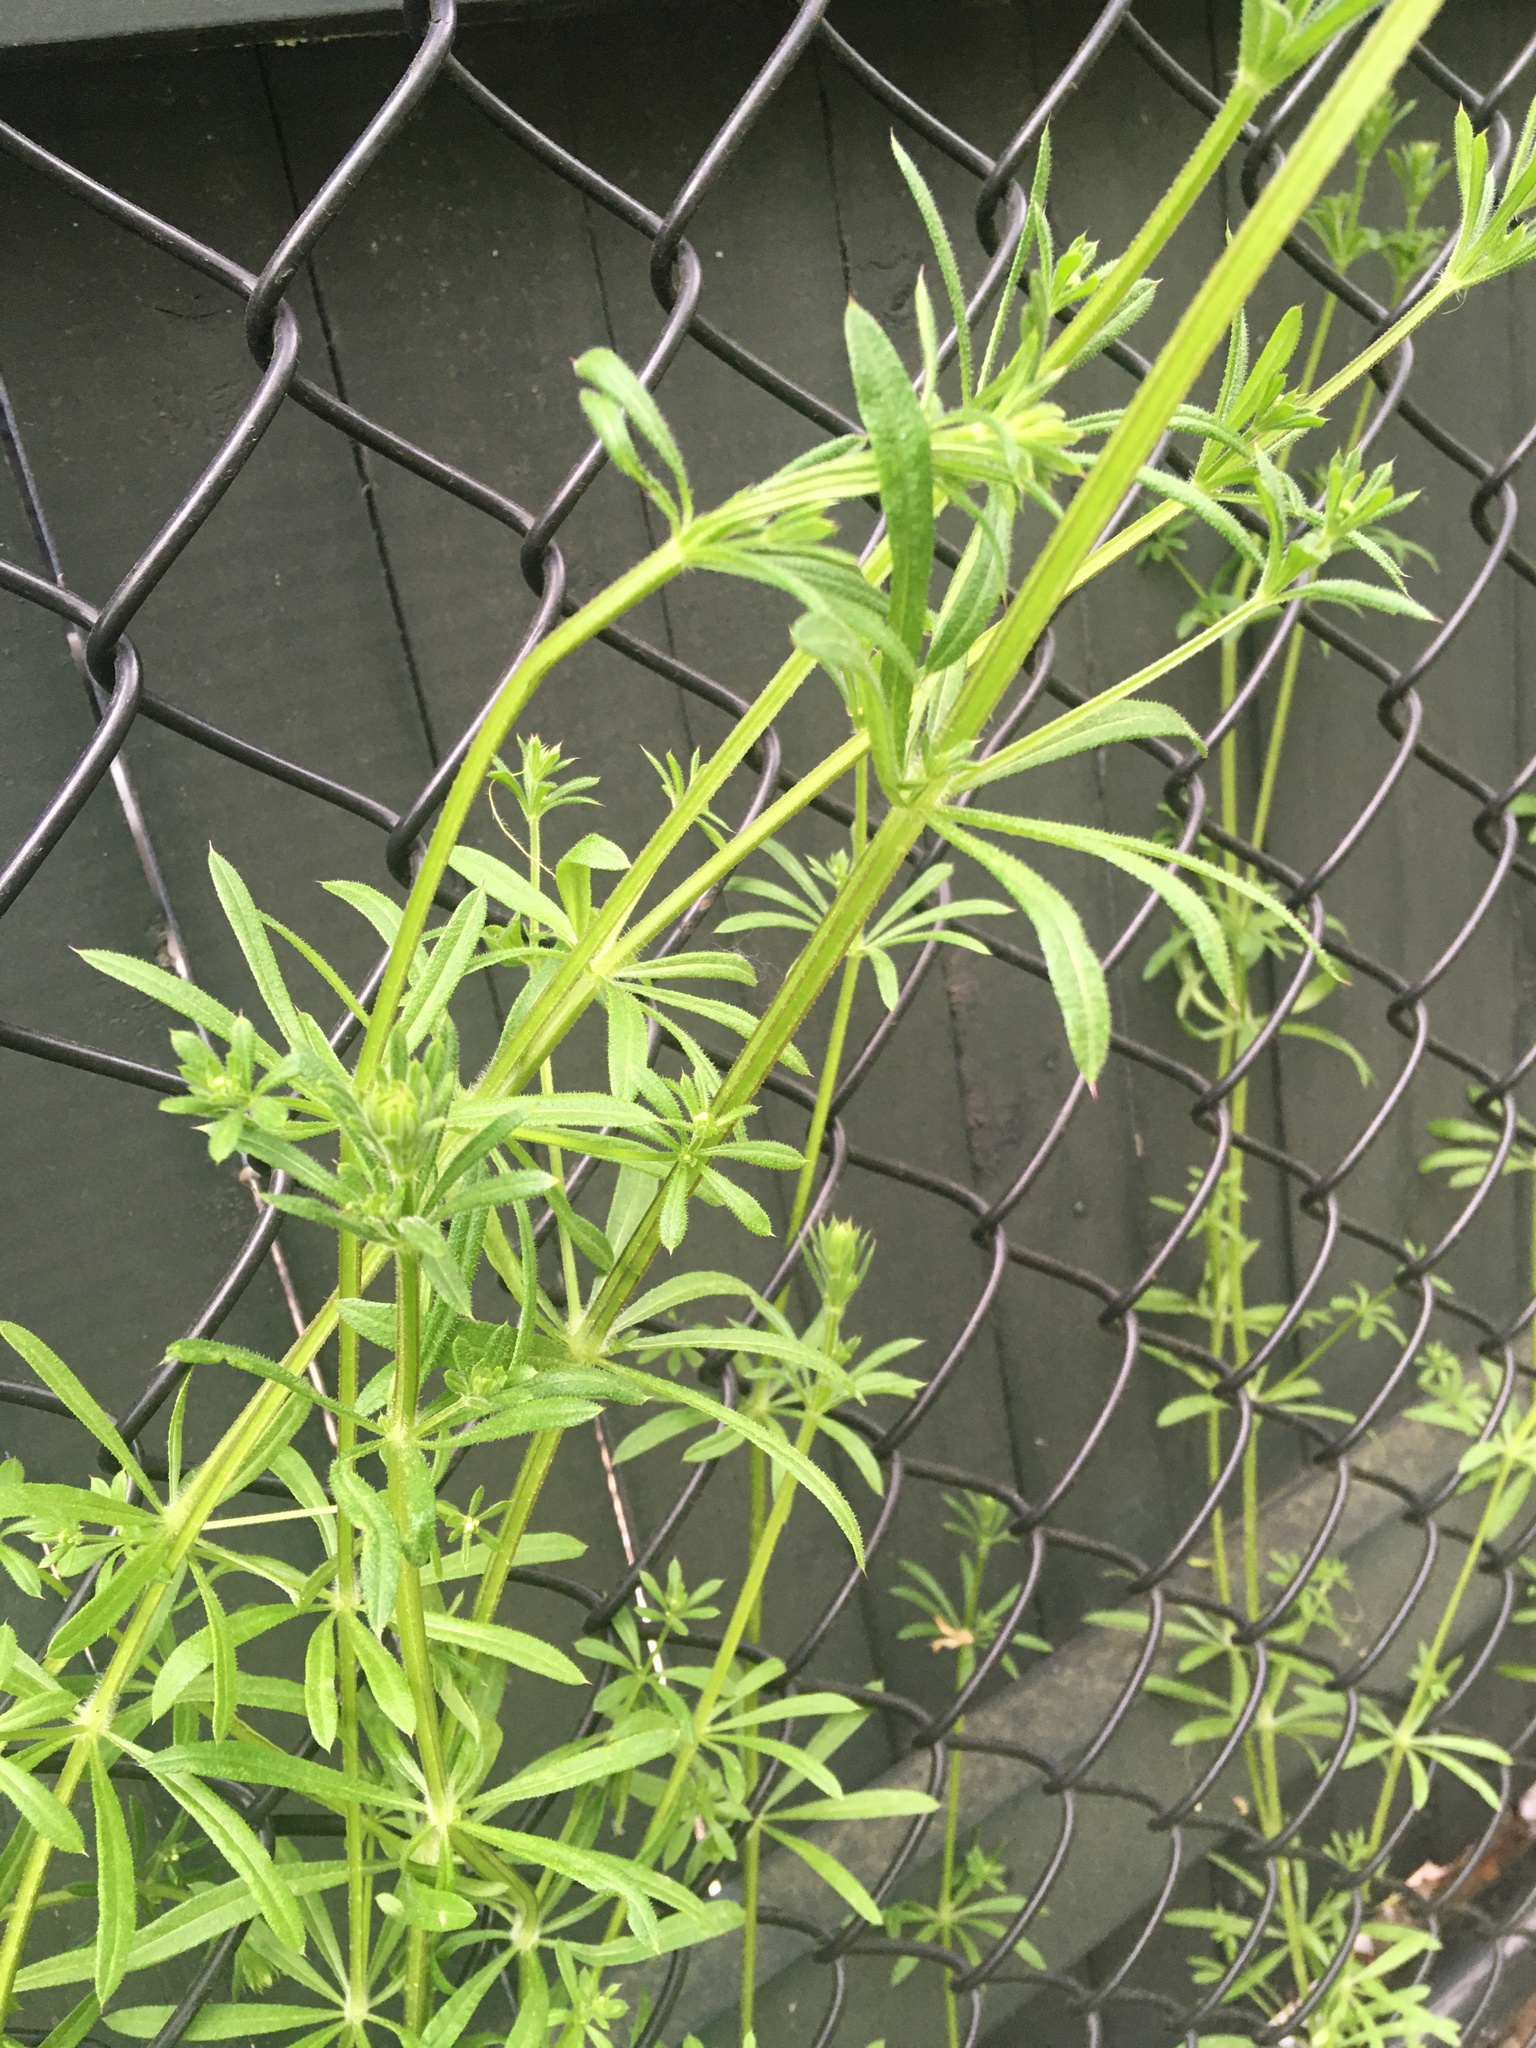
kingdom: Plantae
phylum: Tracheophyta
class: Magnoliopsida
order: Gentianales
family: Rubiaceae
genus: Galium
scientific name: Galium aparine
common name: Cleavers
